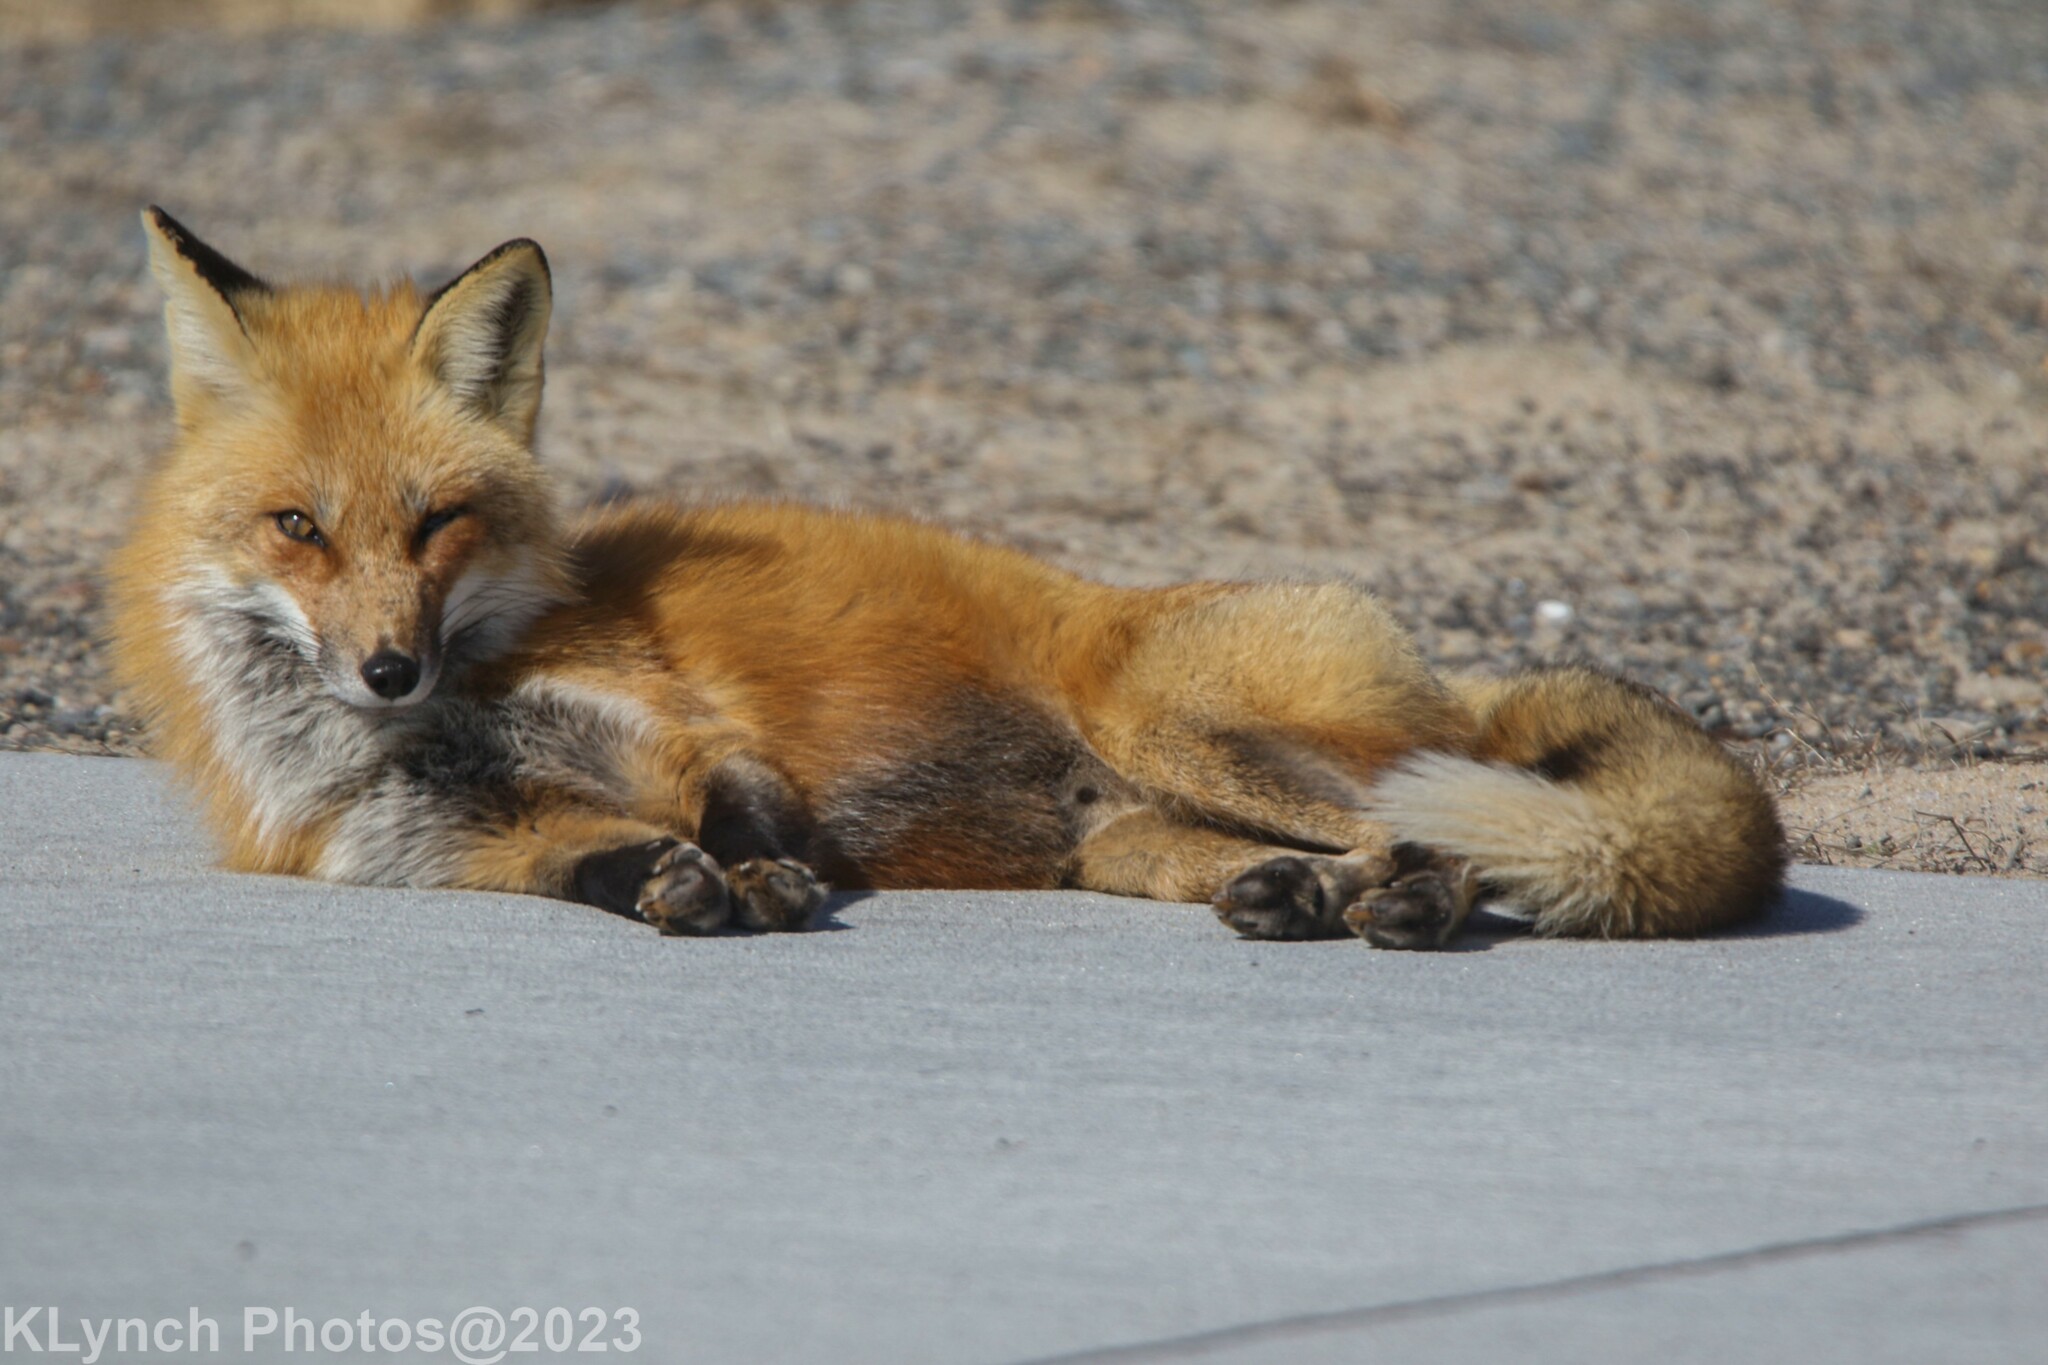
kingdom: Animalia
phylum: Chordata
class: Mammalia
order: Carnivora
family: Canidae
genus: Vulpes
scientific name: Vulpes vulpes
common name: Red fox
